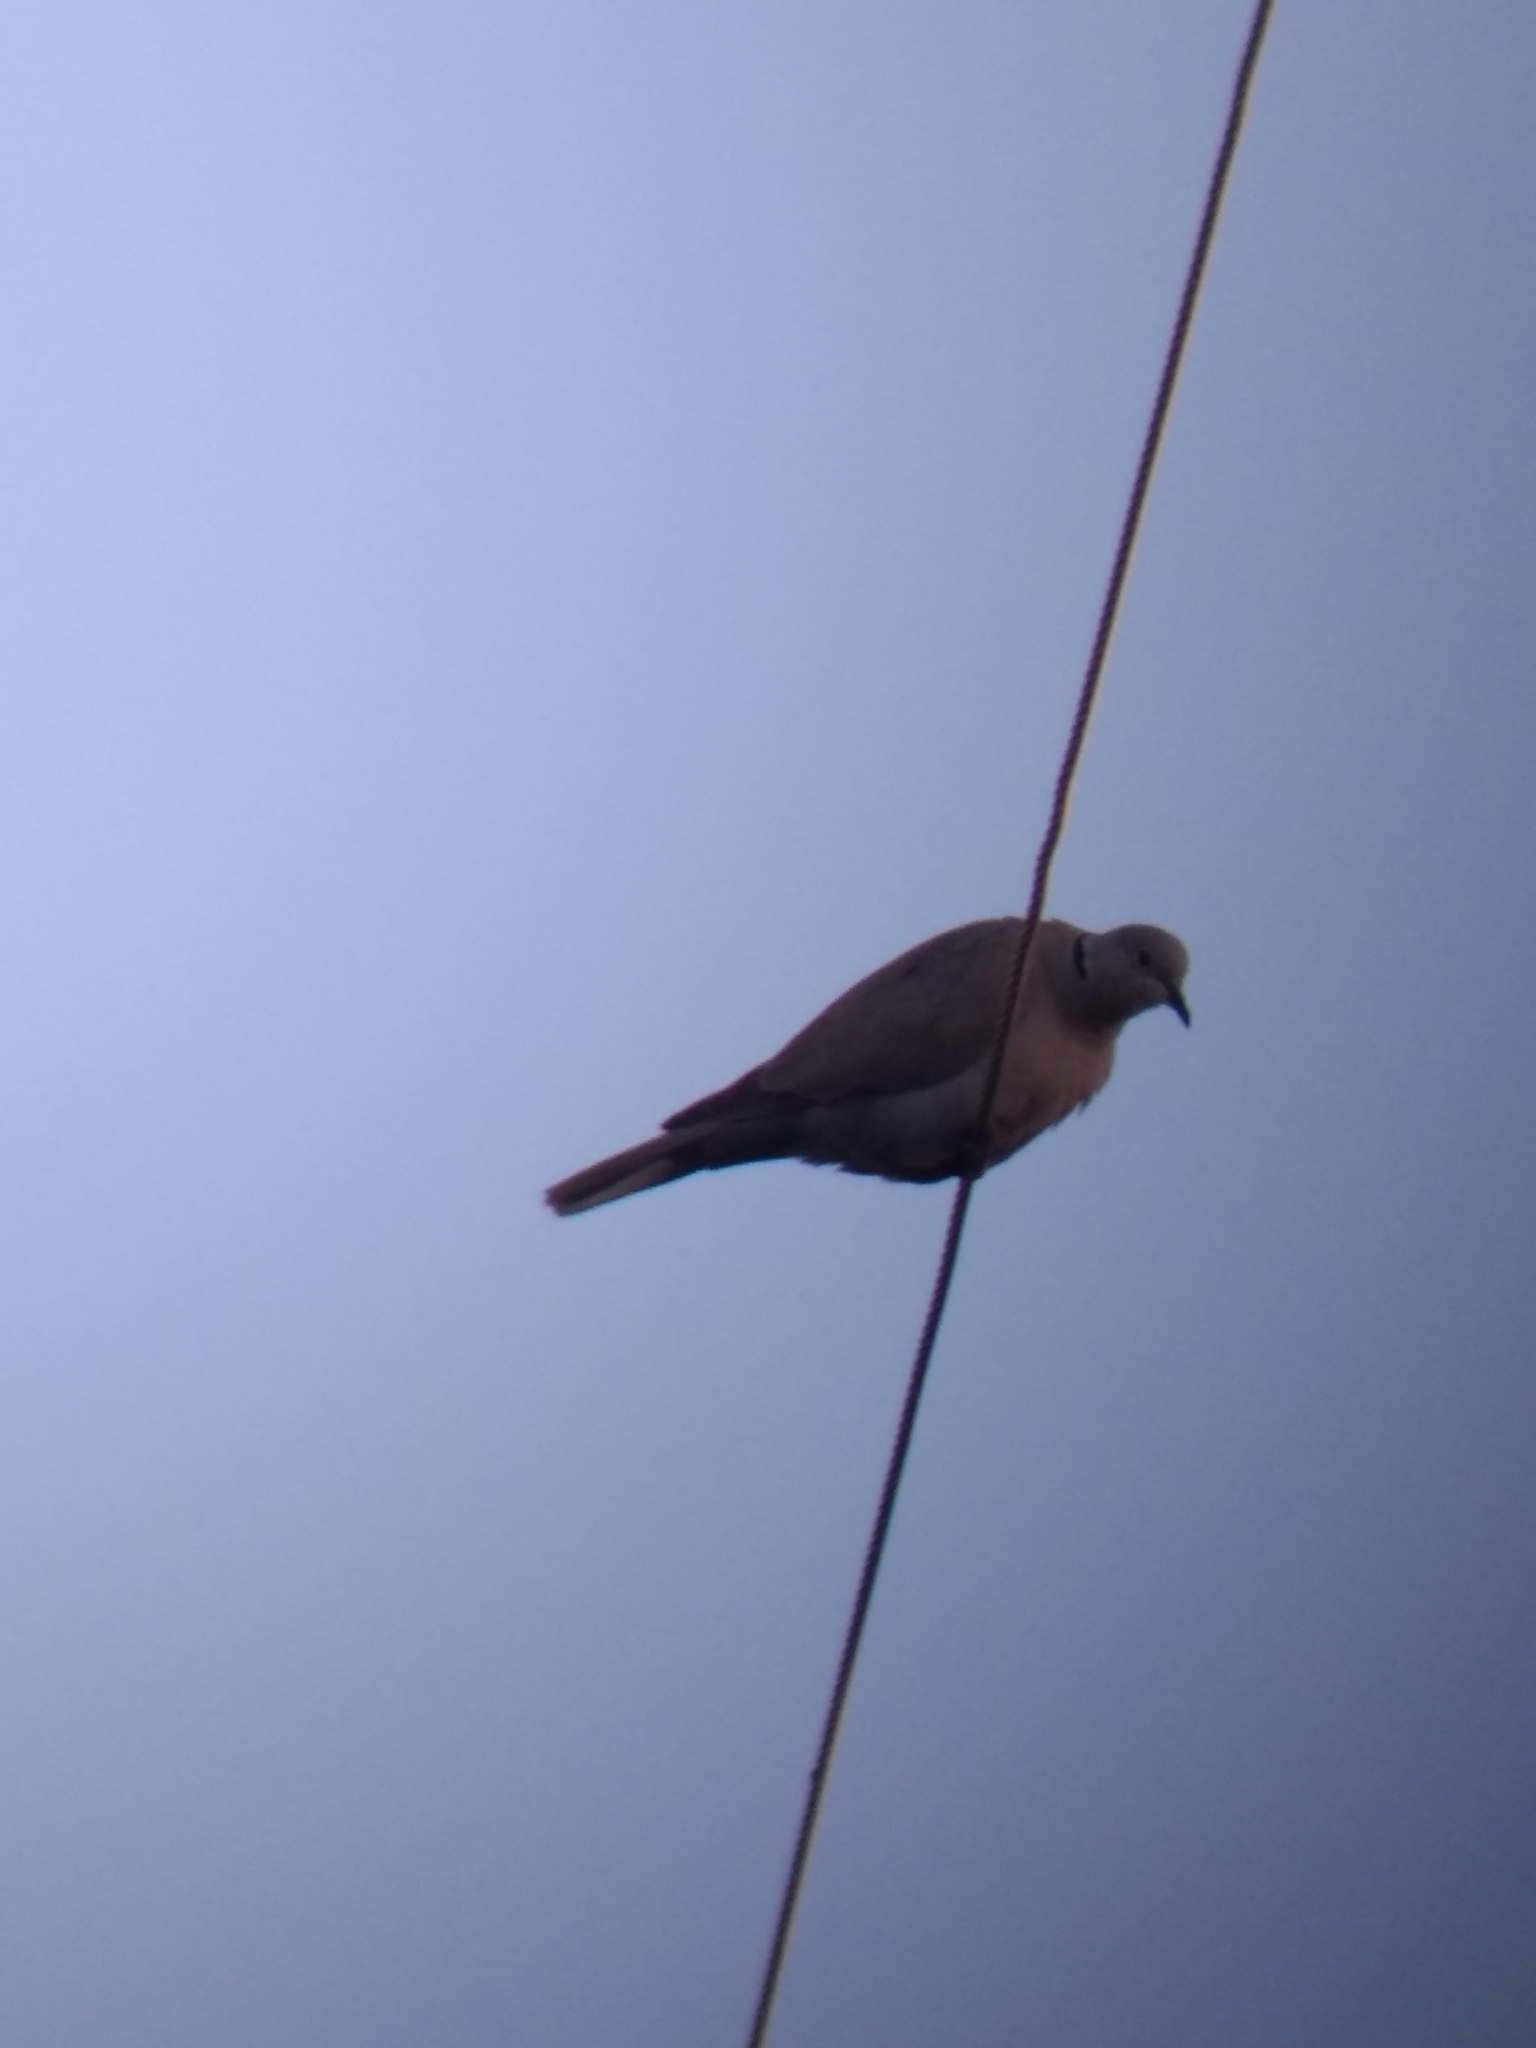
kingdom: Animalia
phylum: Chordata
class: Aves
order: Columbiformes
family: Columbidae
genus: Streptopelia
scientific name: Streptopelia decaocto
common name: Eurasian collared dove
